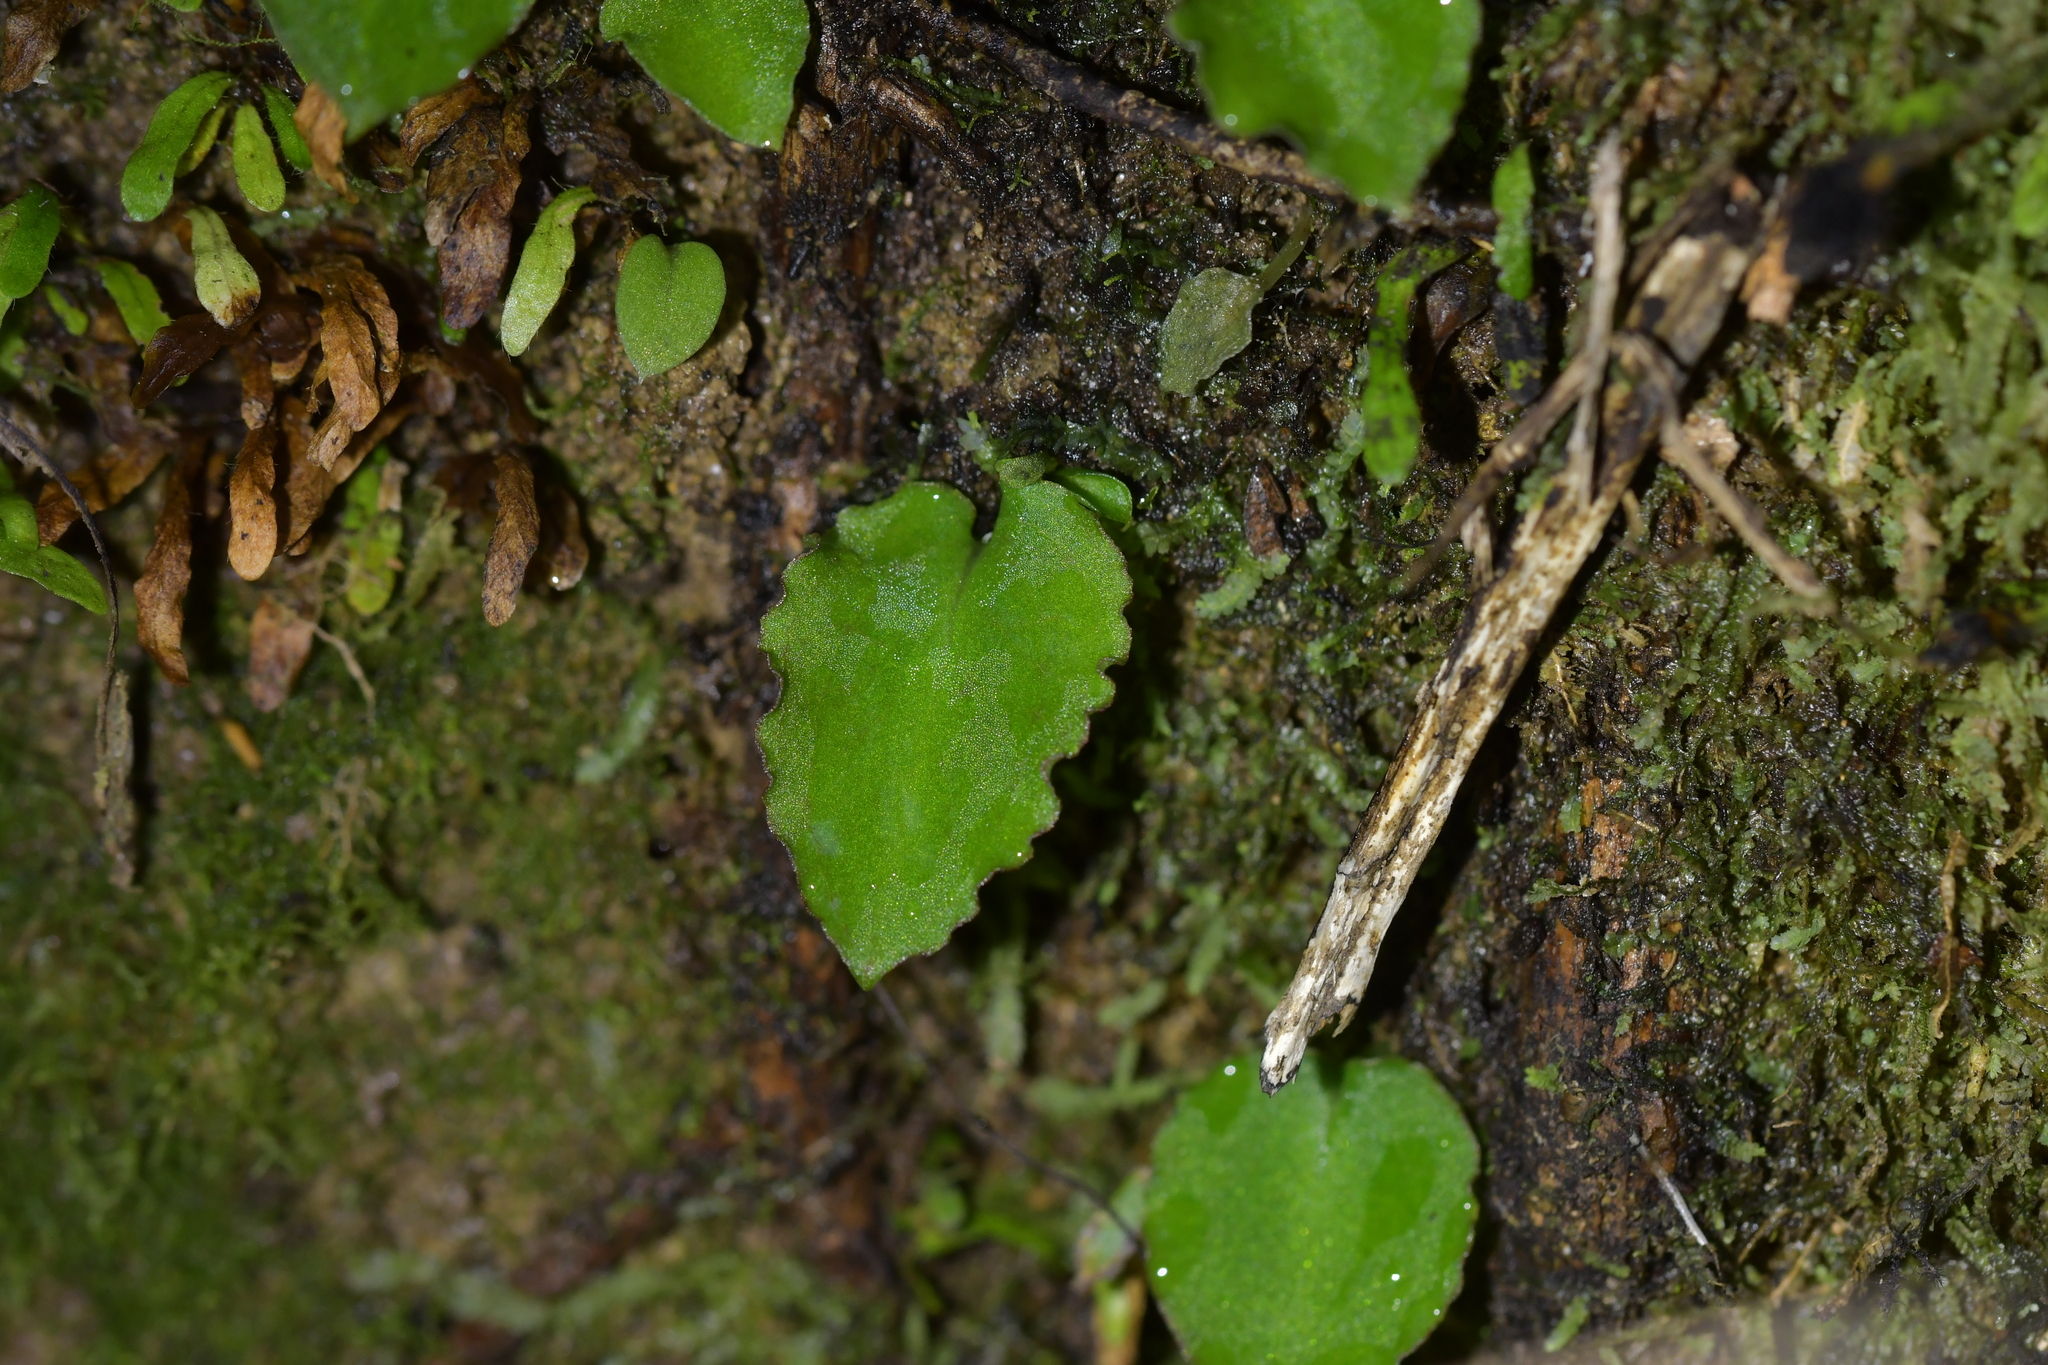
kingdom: Plantae
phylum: Tracheophyta
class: Liliopsida
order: Asparagales
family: Orchidaceae
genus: Corybas
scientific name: Corybas oblongus
